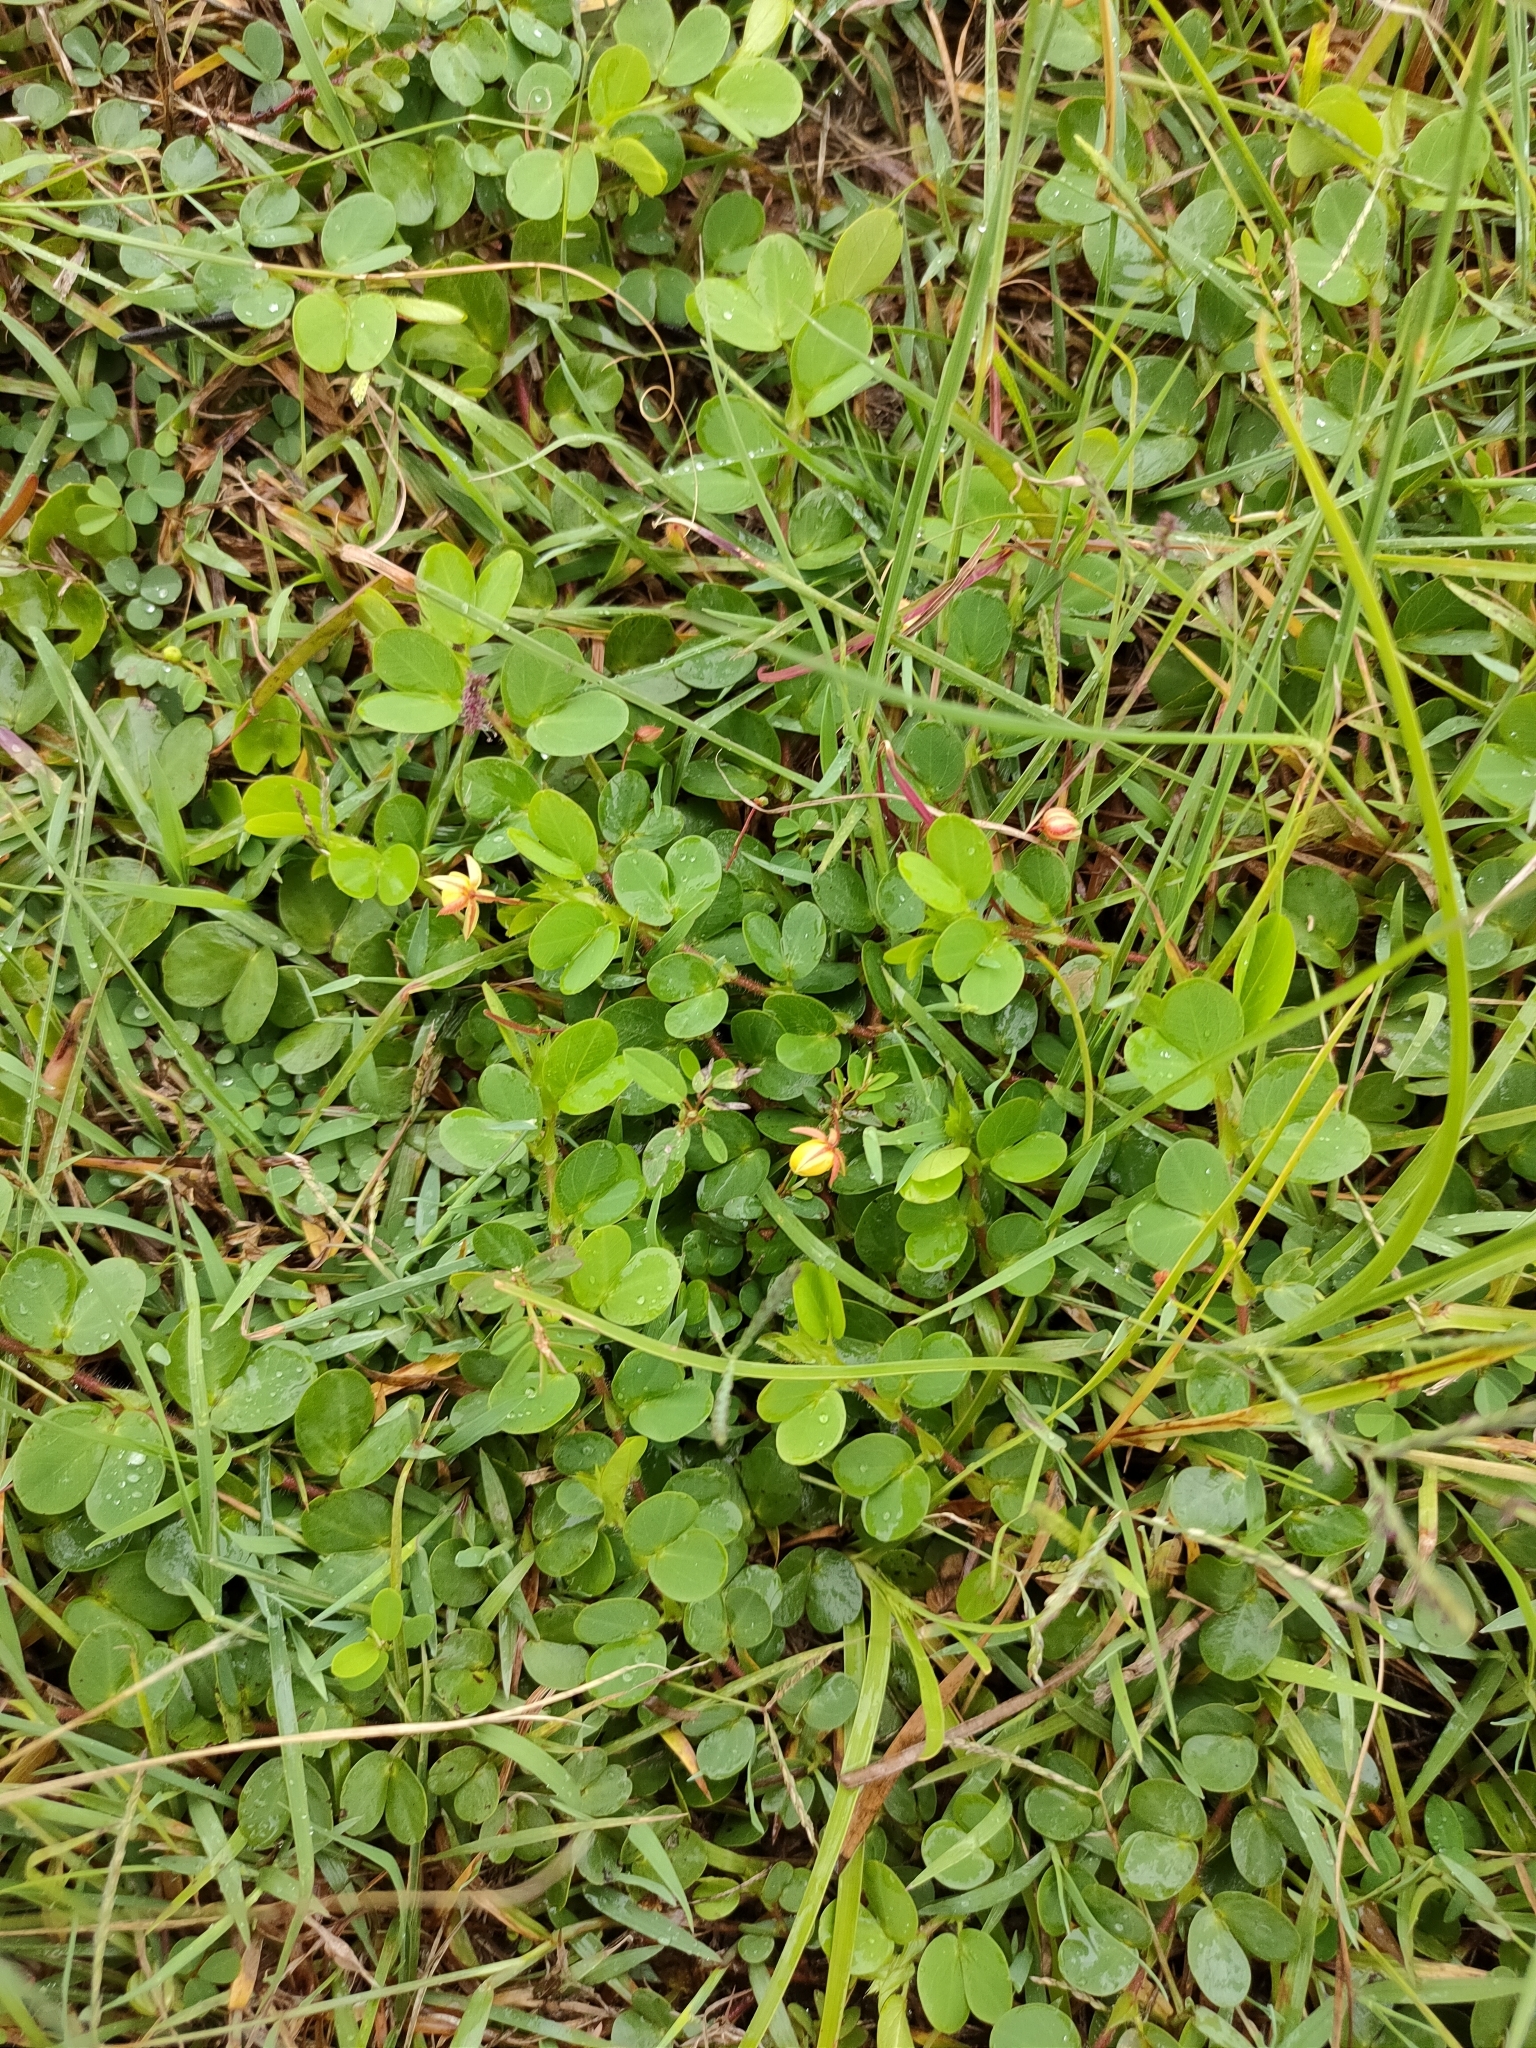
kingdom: Plantae
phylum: Tracheophyta
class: Magnoliopsida
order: Fabales
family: Fabaceae
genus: Chamaecrista
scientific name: Chamaecrista rotundifolia
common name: Round-leaf cassia
